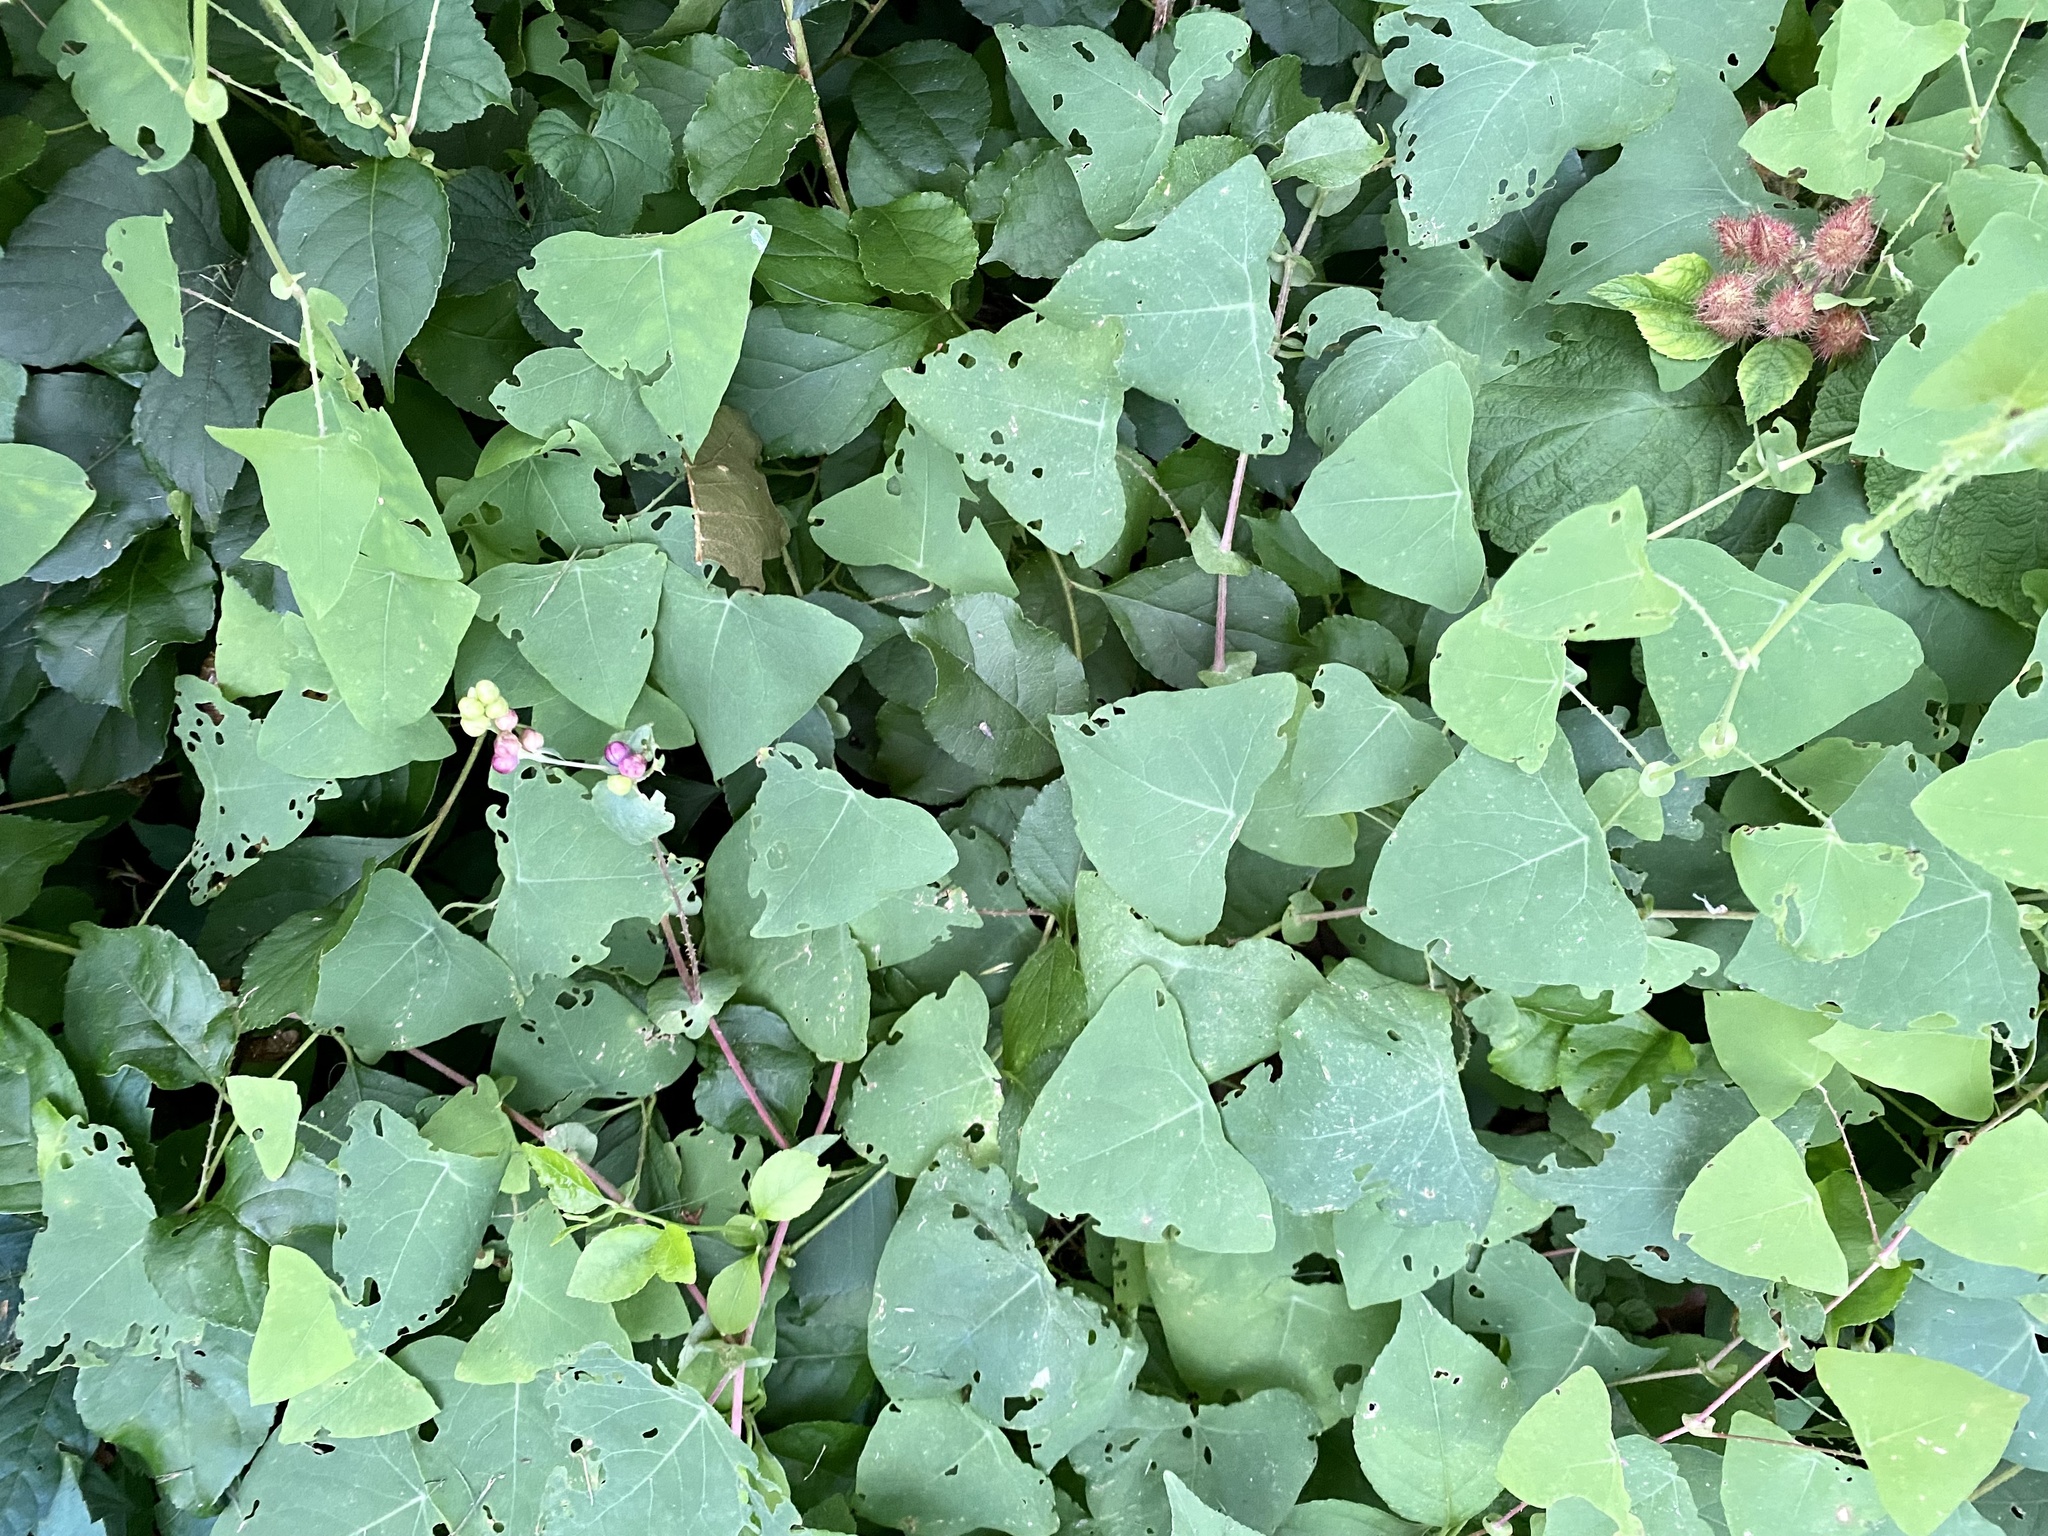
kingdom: Plantae
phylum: Tracheophyta
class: Magnoliopsida
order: Caryophyllales
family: Polygonaceae
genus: Persicaria
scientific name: Persicaria perfoliata
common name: Asiatic tearthumb
